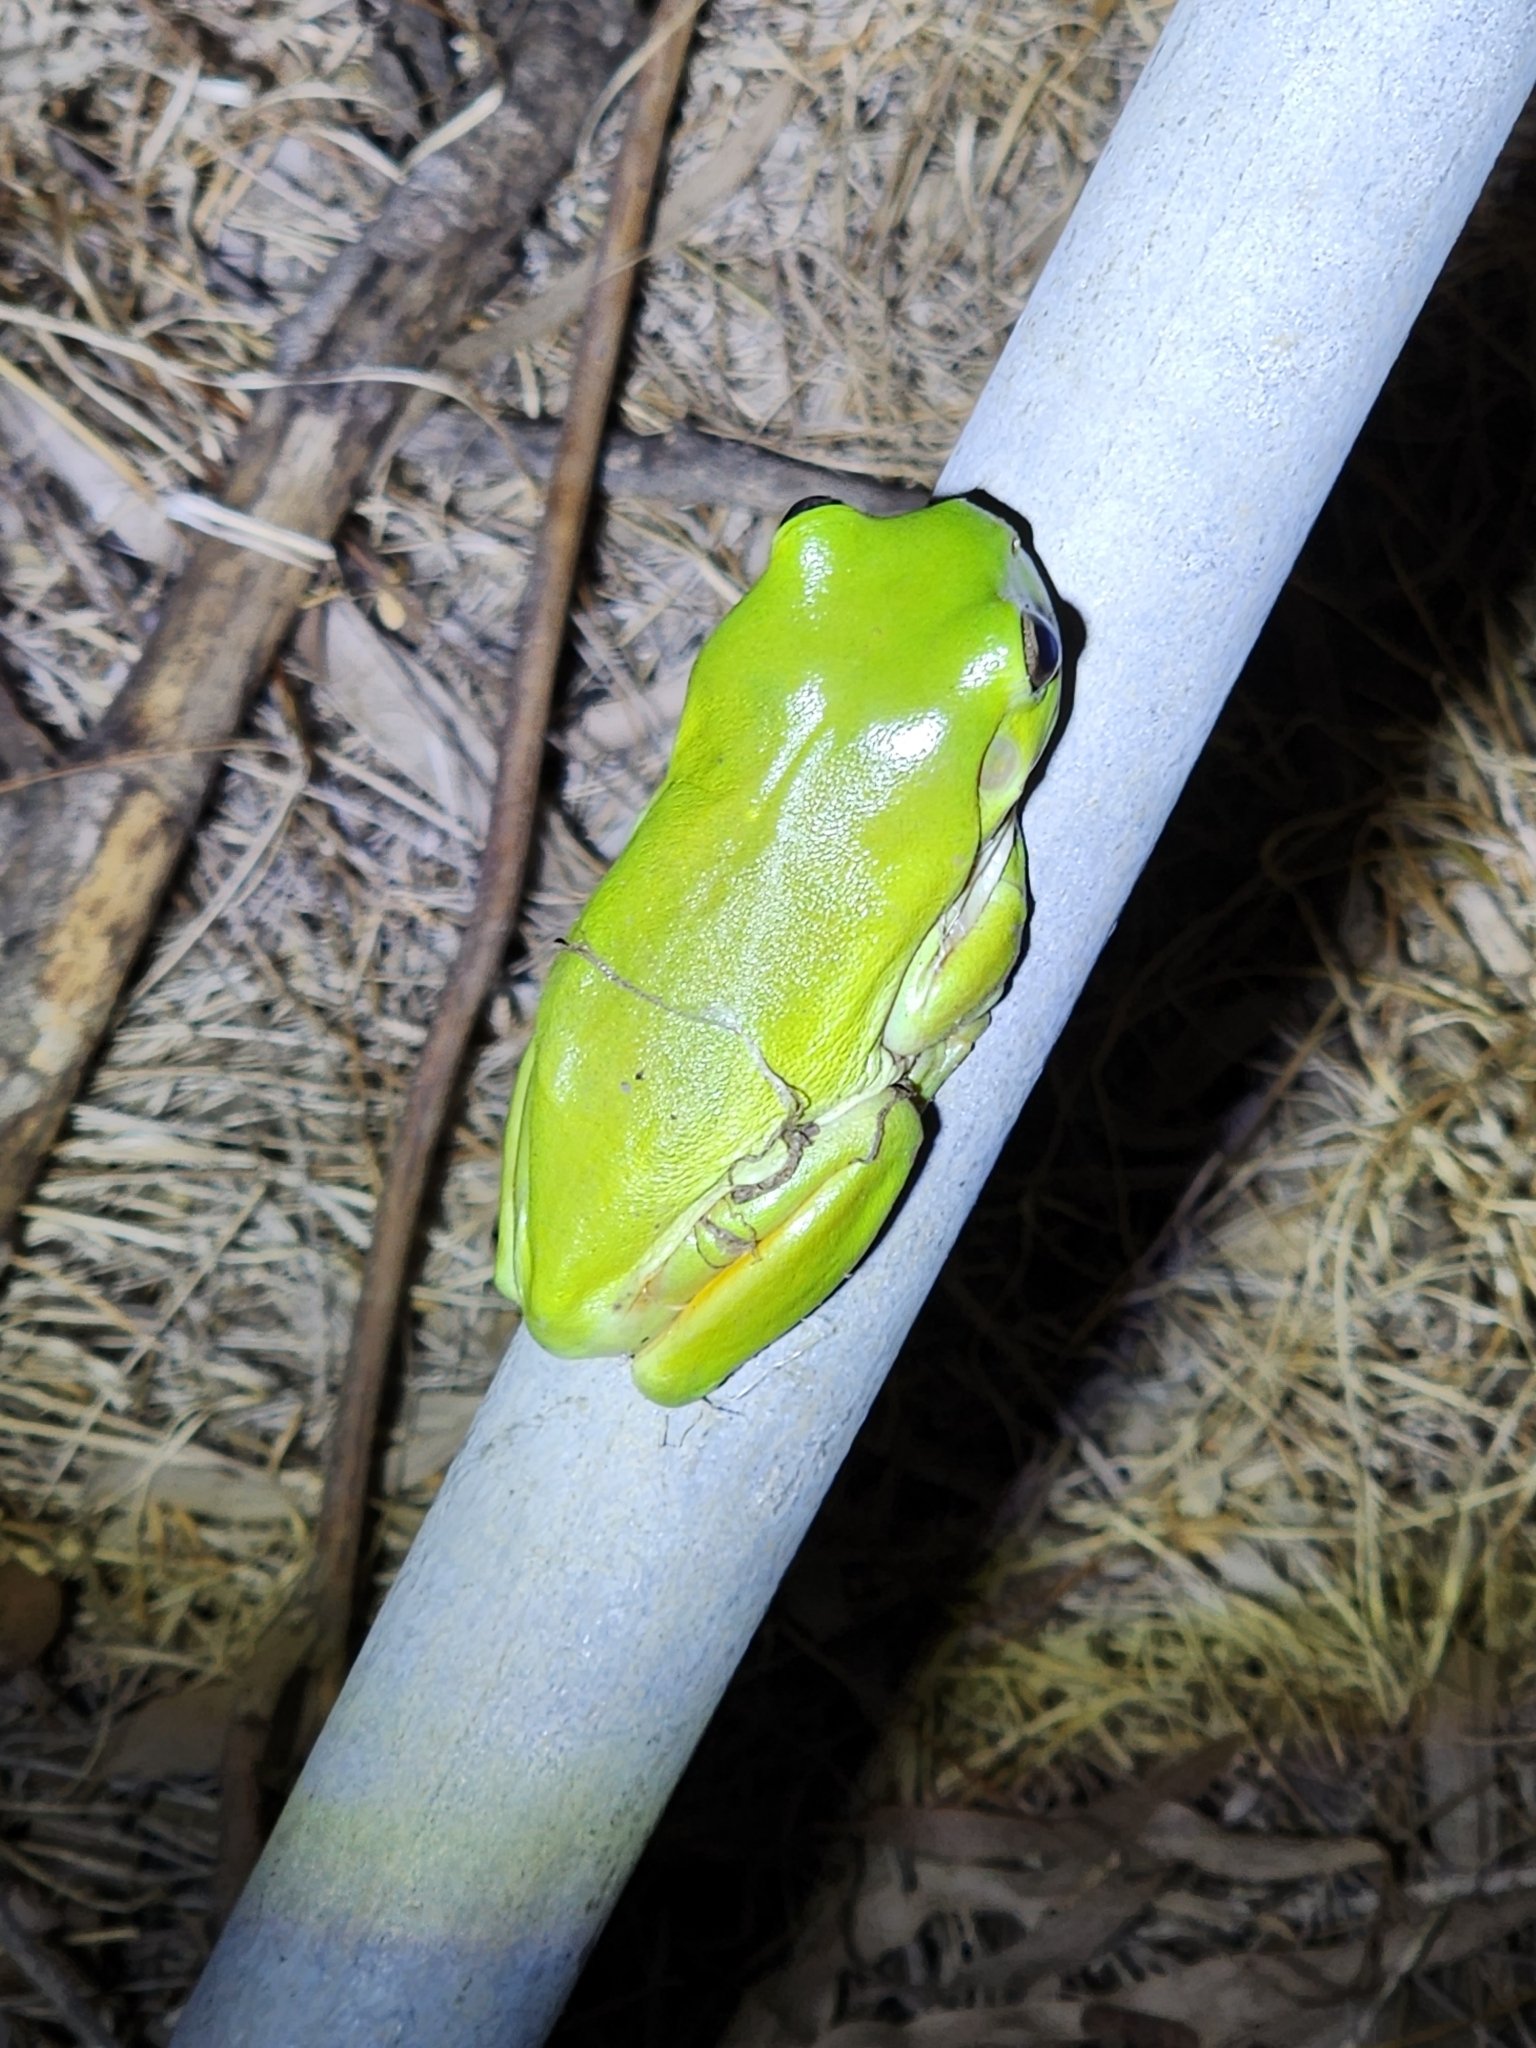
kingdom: Animalia
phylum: Chordata
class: Amphibia
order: Anura
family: Pelodryadidae
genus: Ranoidea
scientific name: Ranoidea caerulea
